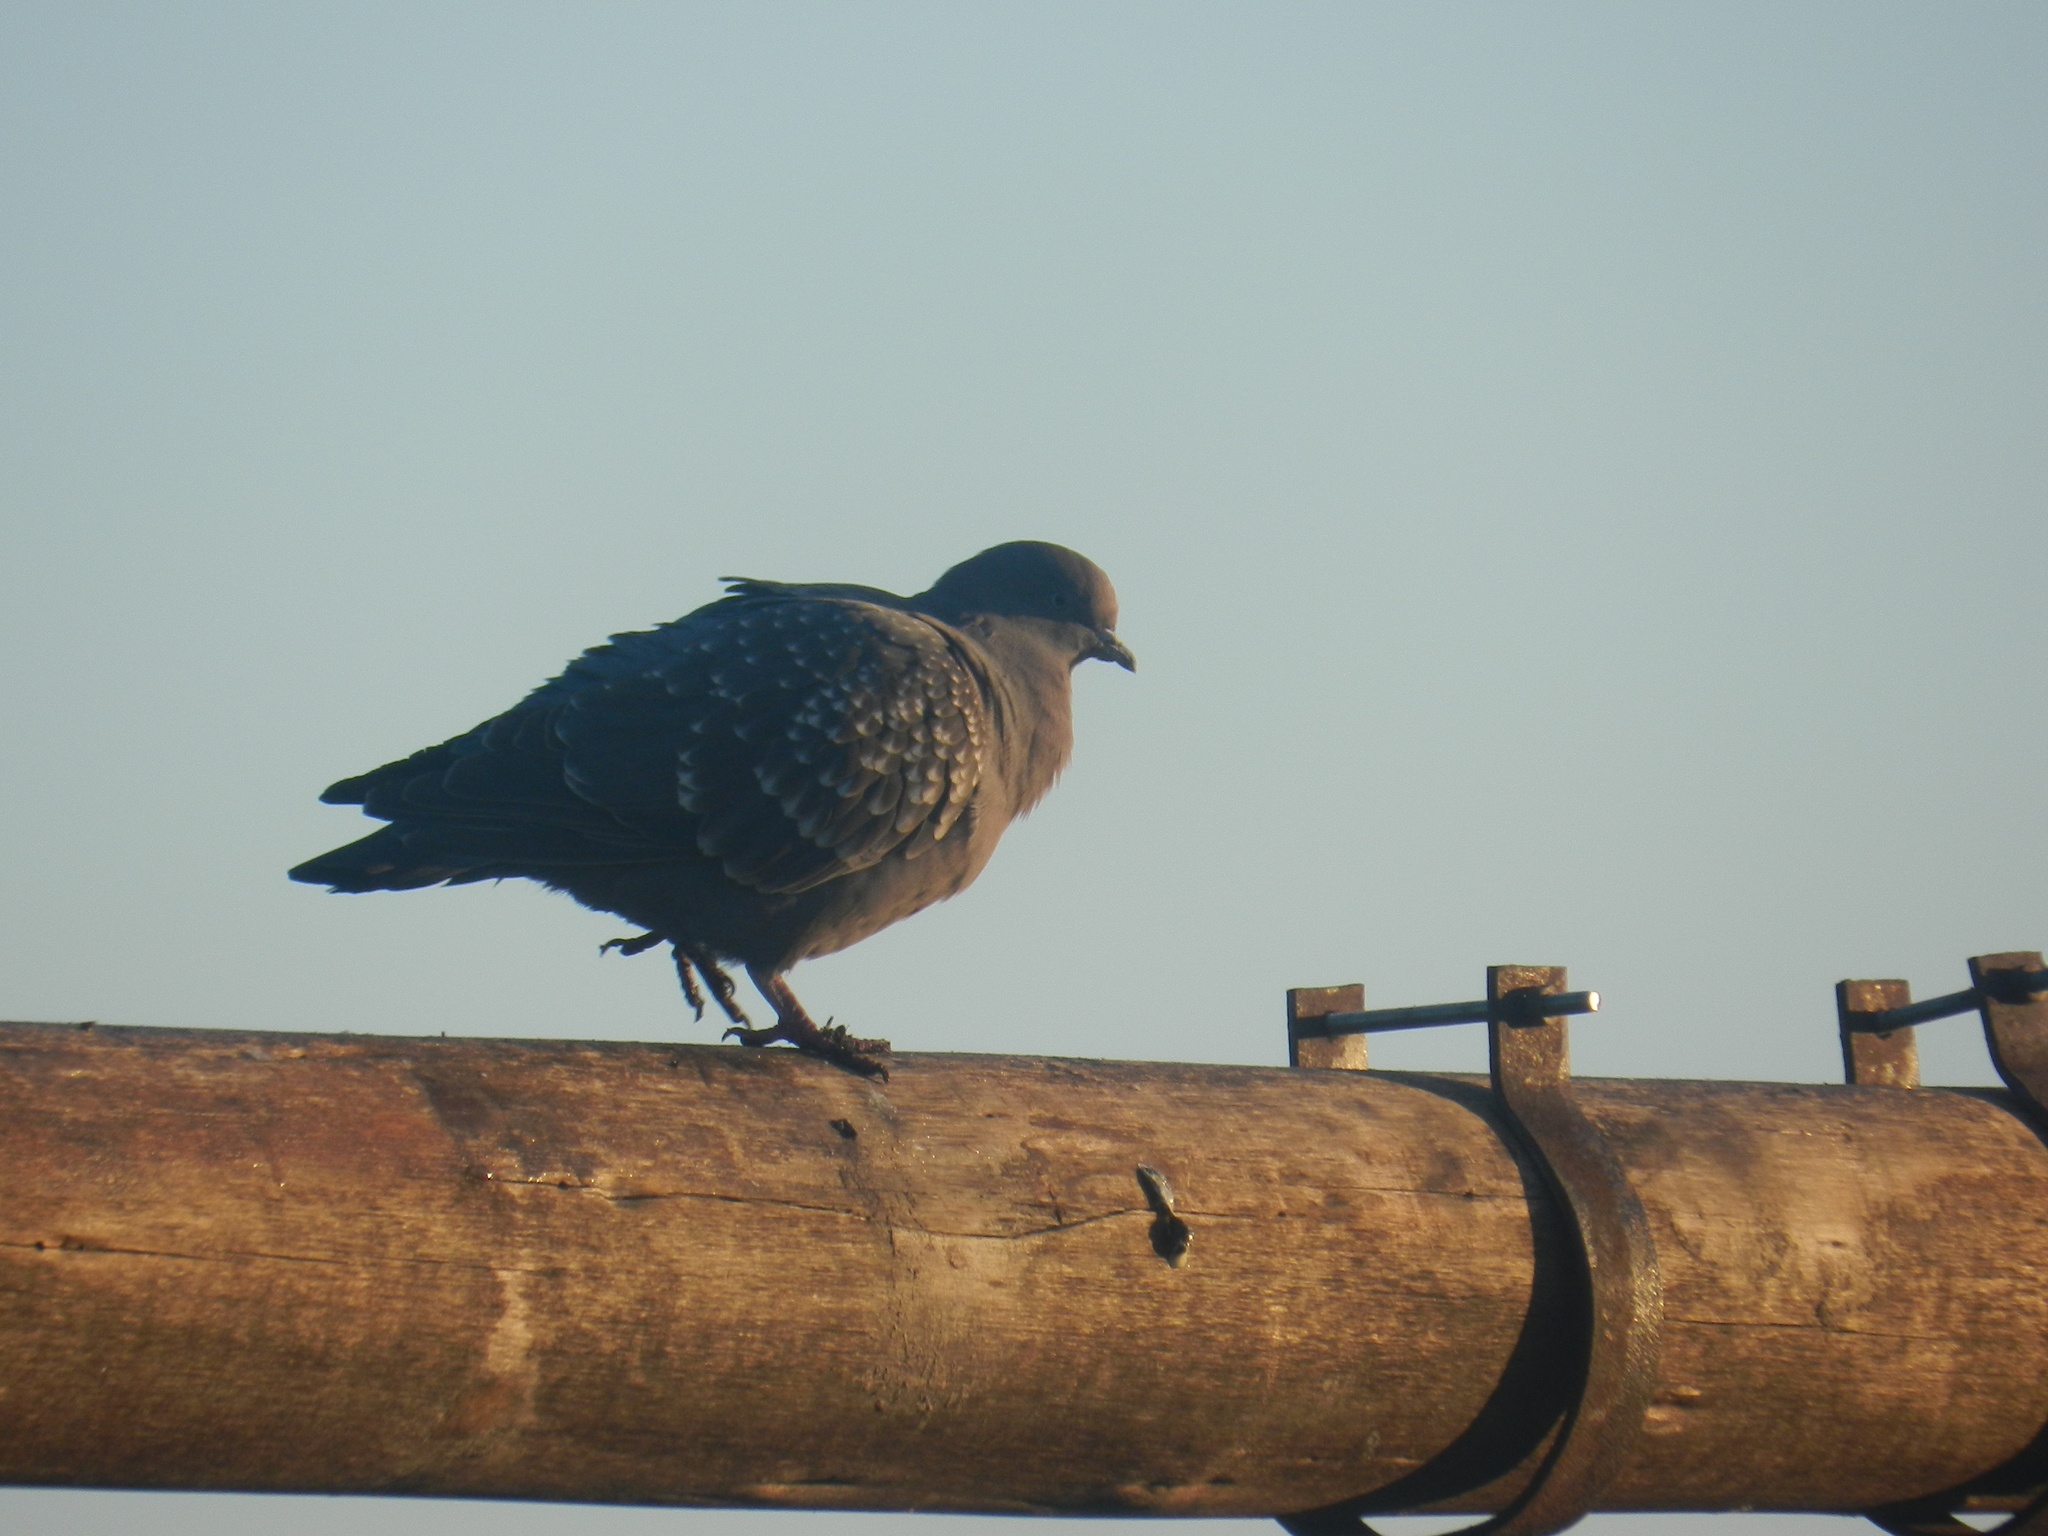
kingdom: Animalia
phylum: Chordata
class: Aves
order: Columbiformes
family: Columbidae
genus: Patagioenas
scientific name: Patagioenas maculosa
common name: Spot-winged pigeon
